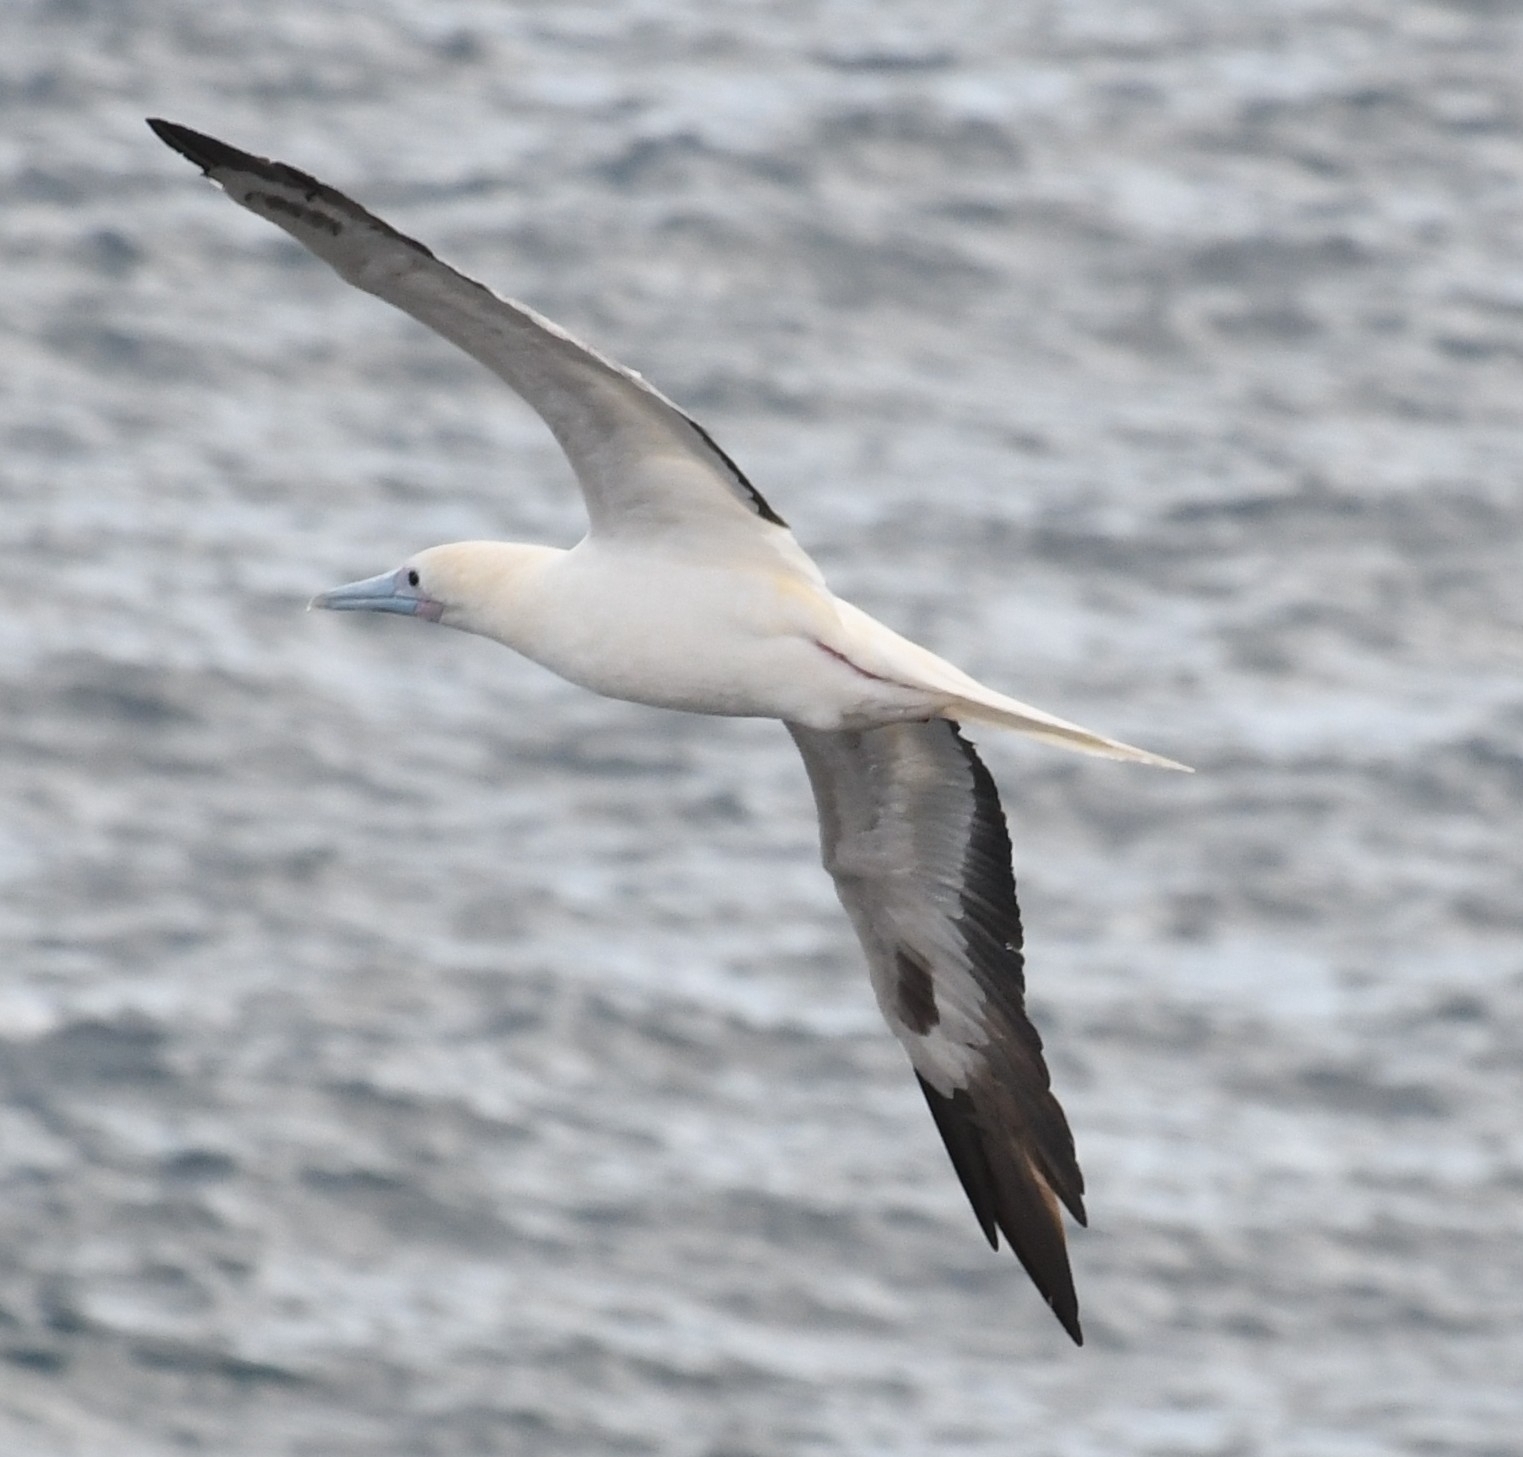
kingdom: Animalia
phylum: Chordata
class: Aves
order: Suliformes
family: Sulidae
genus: Sula
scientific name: Sula sula
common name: Red-footed booby
